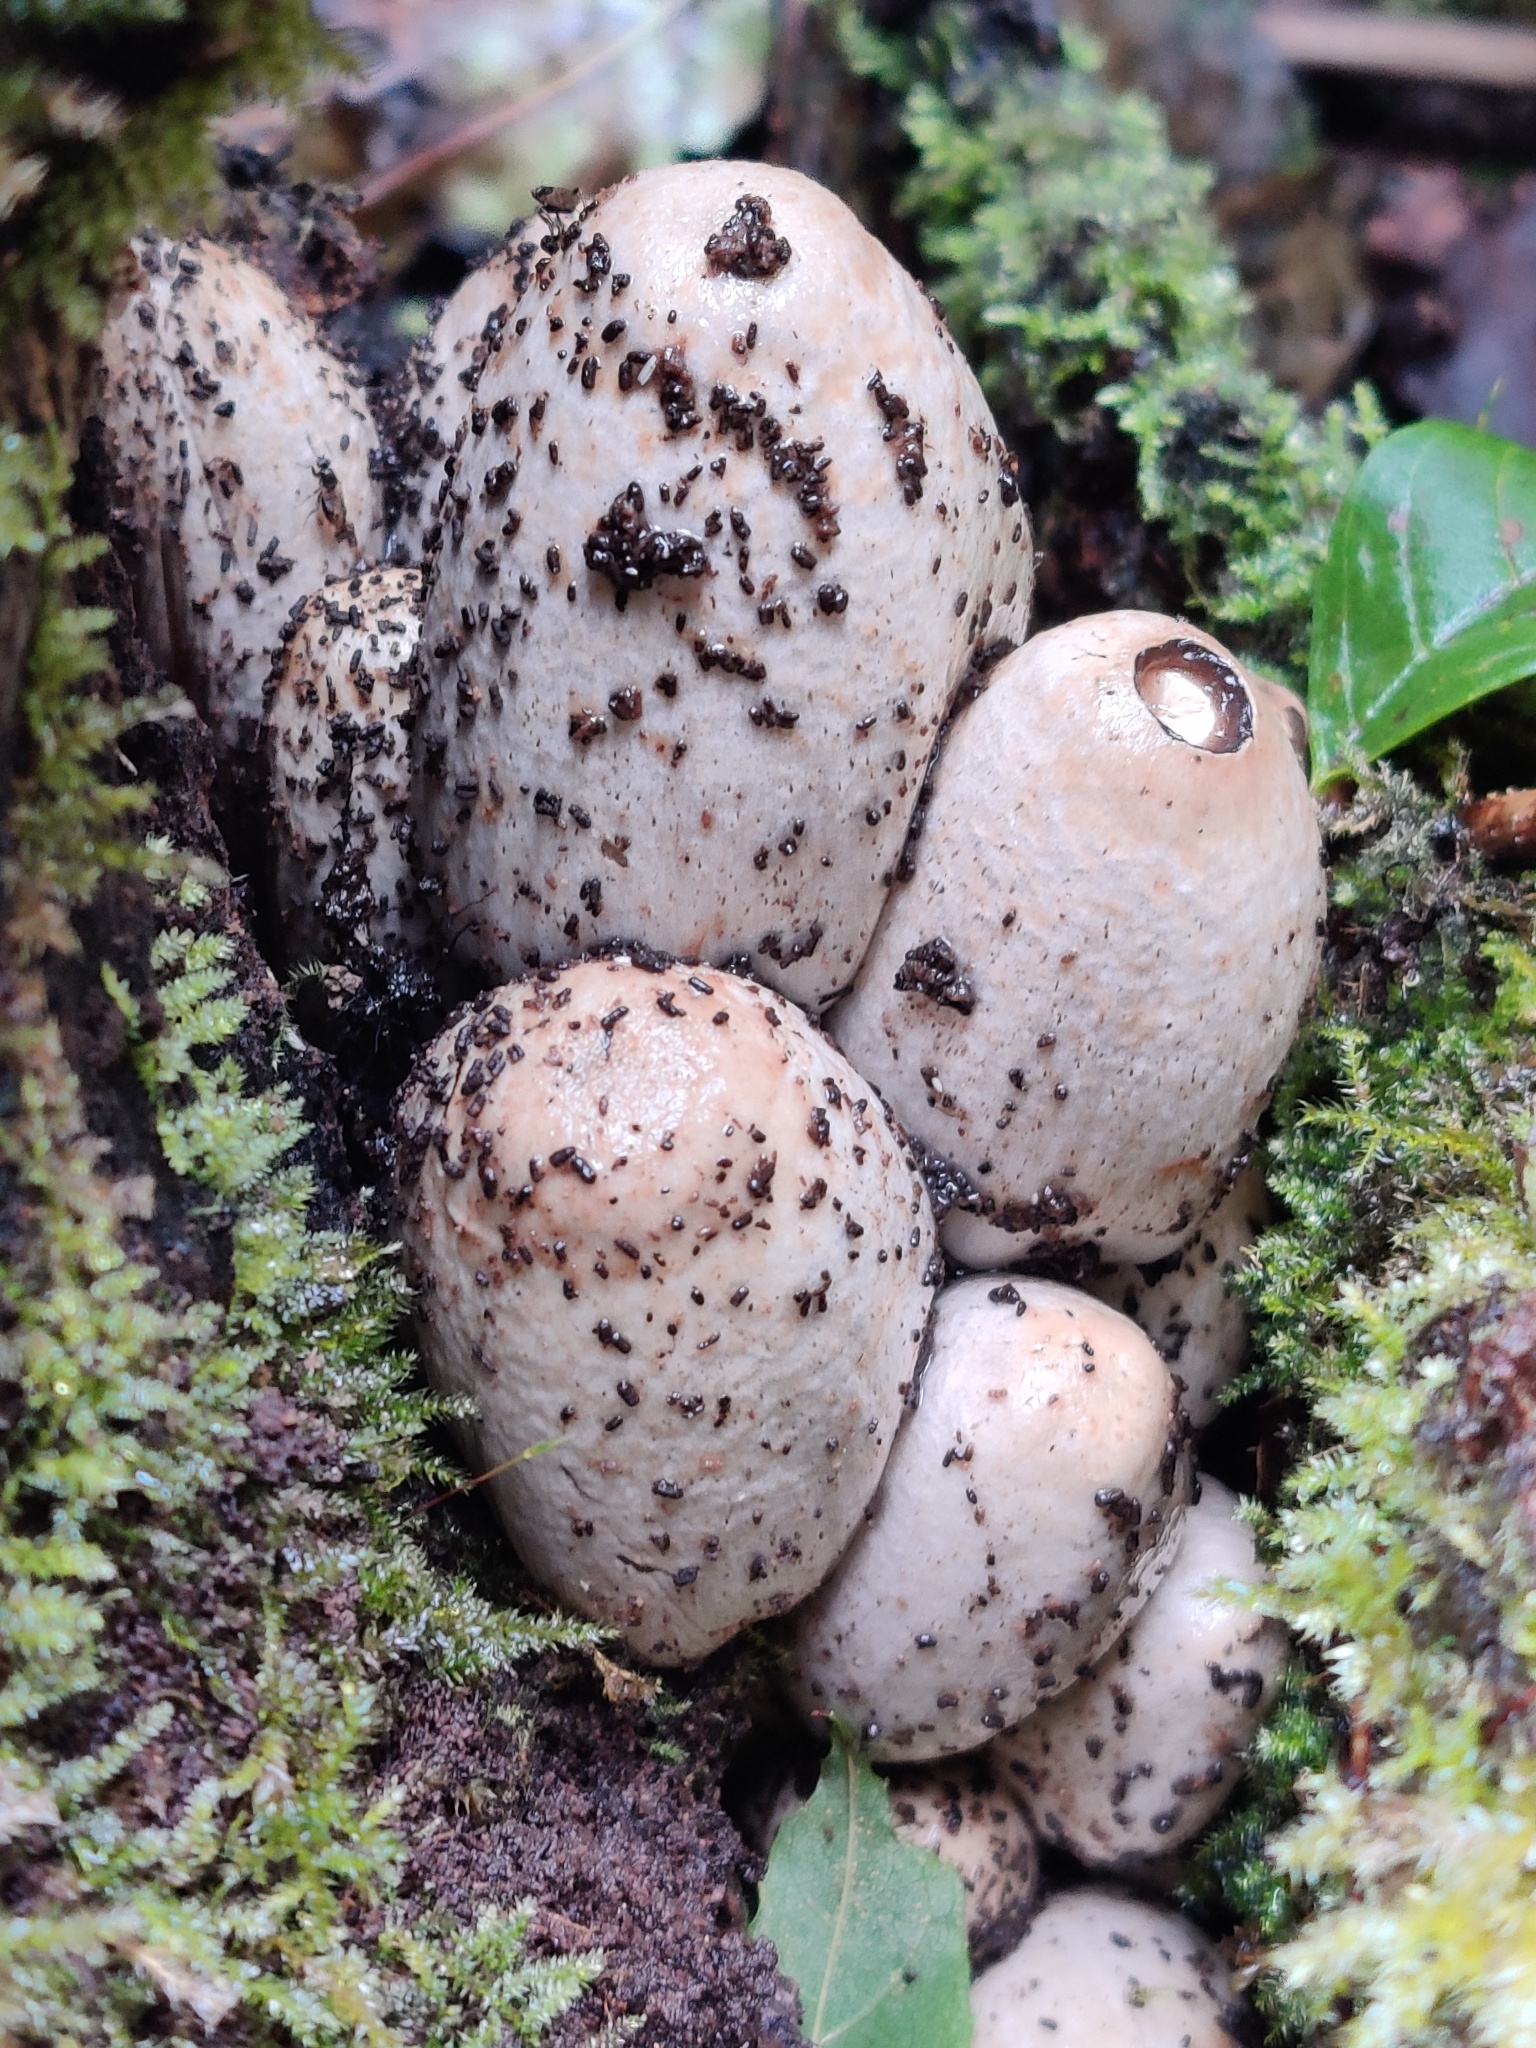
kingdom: Fungi
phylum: Basidiomycota
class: Agaricomycetes
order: Agaricales
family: Psathyrellaceae
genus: Coprinopsis
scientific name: Coprinopsis atramentaria
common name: Common ink-cap
